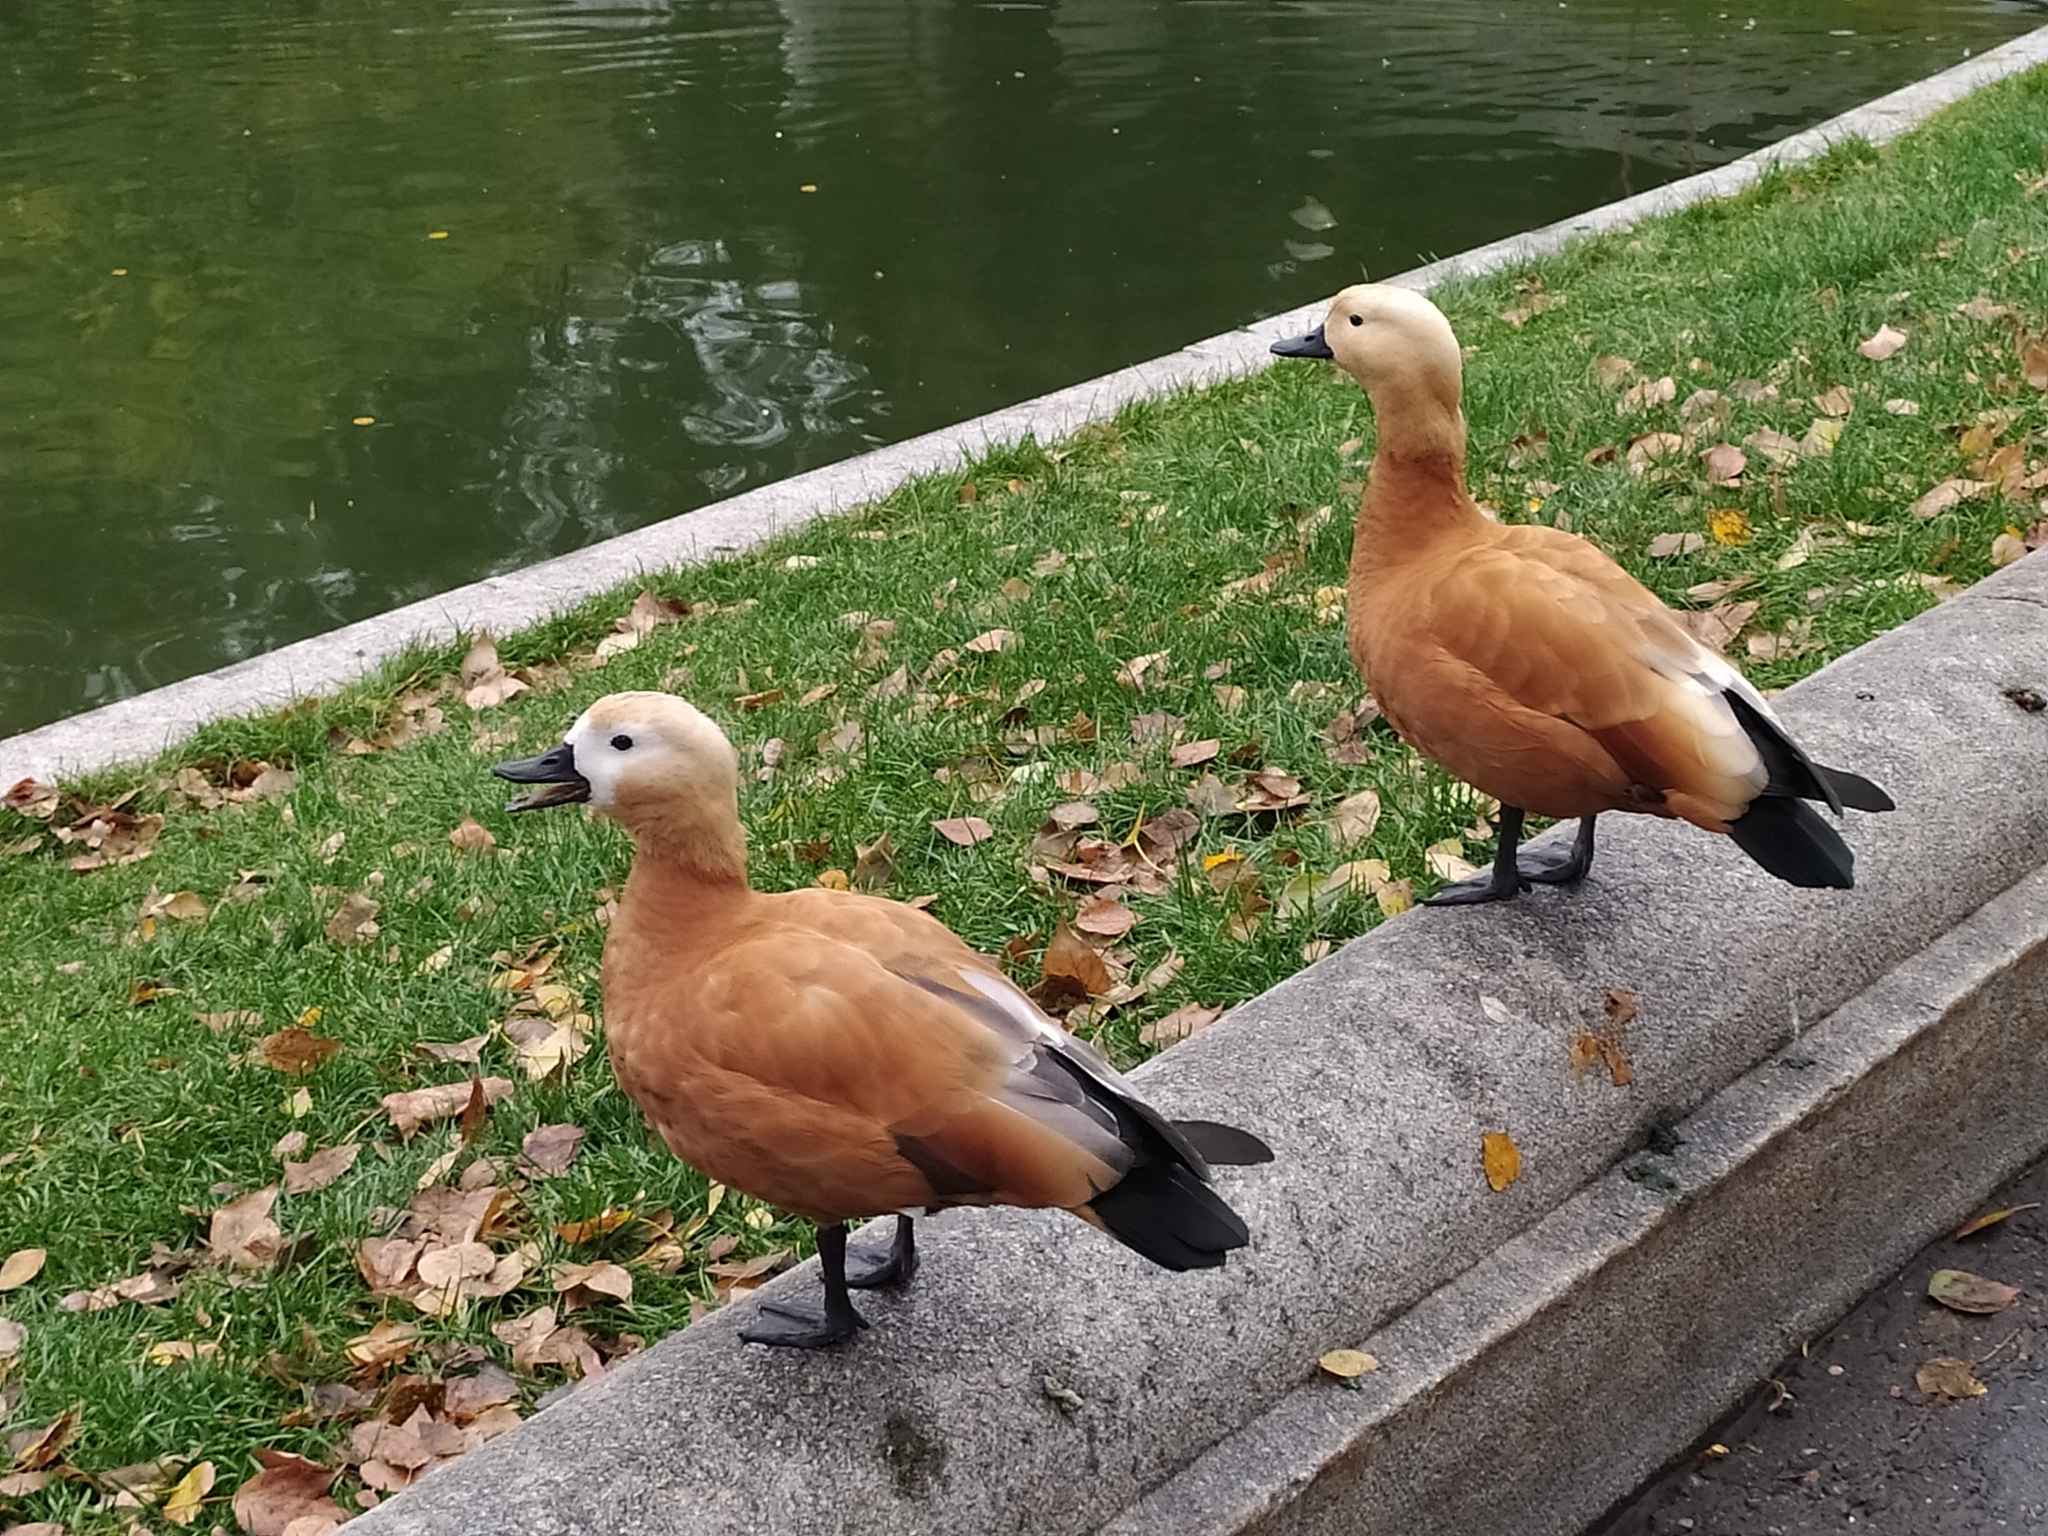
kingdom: Animalia
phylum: Chordata
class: Aves
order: Anseriformes
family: Anatidae
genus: Tadorna
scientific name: Tadorna ferruginea
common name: Ruddy shelduck
